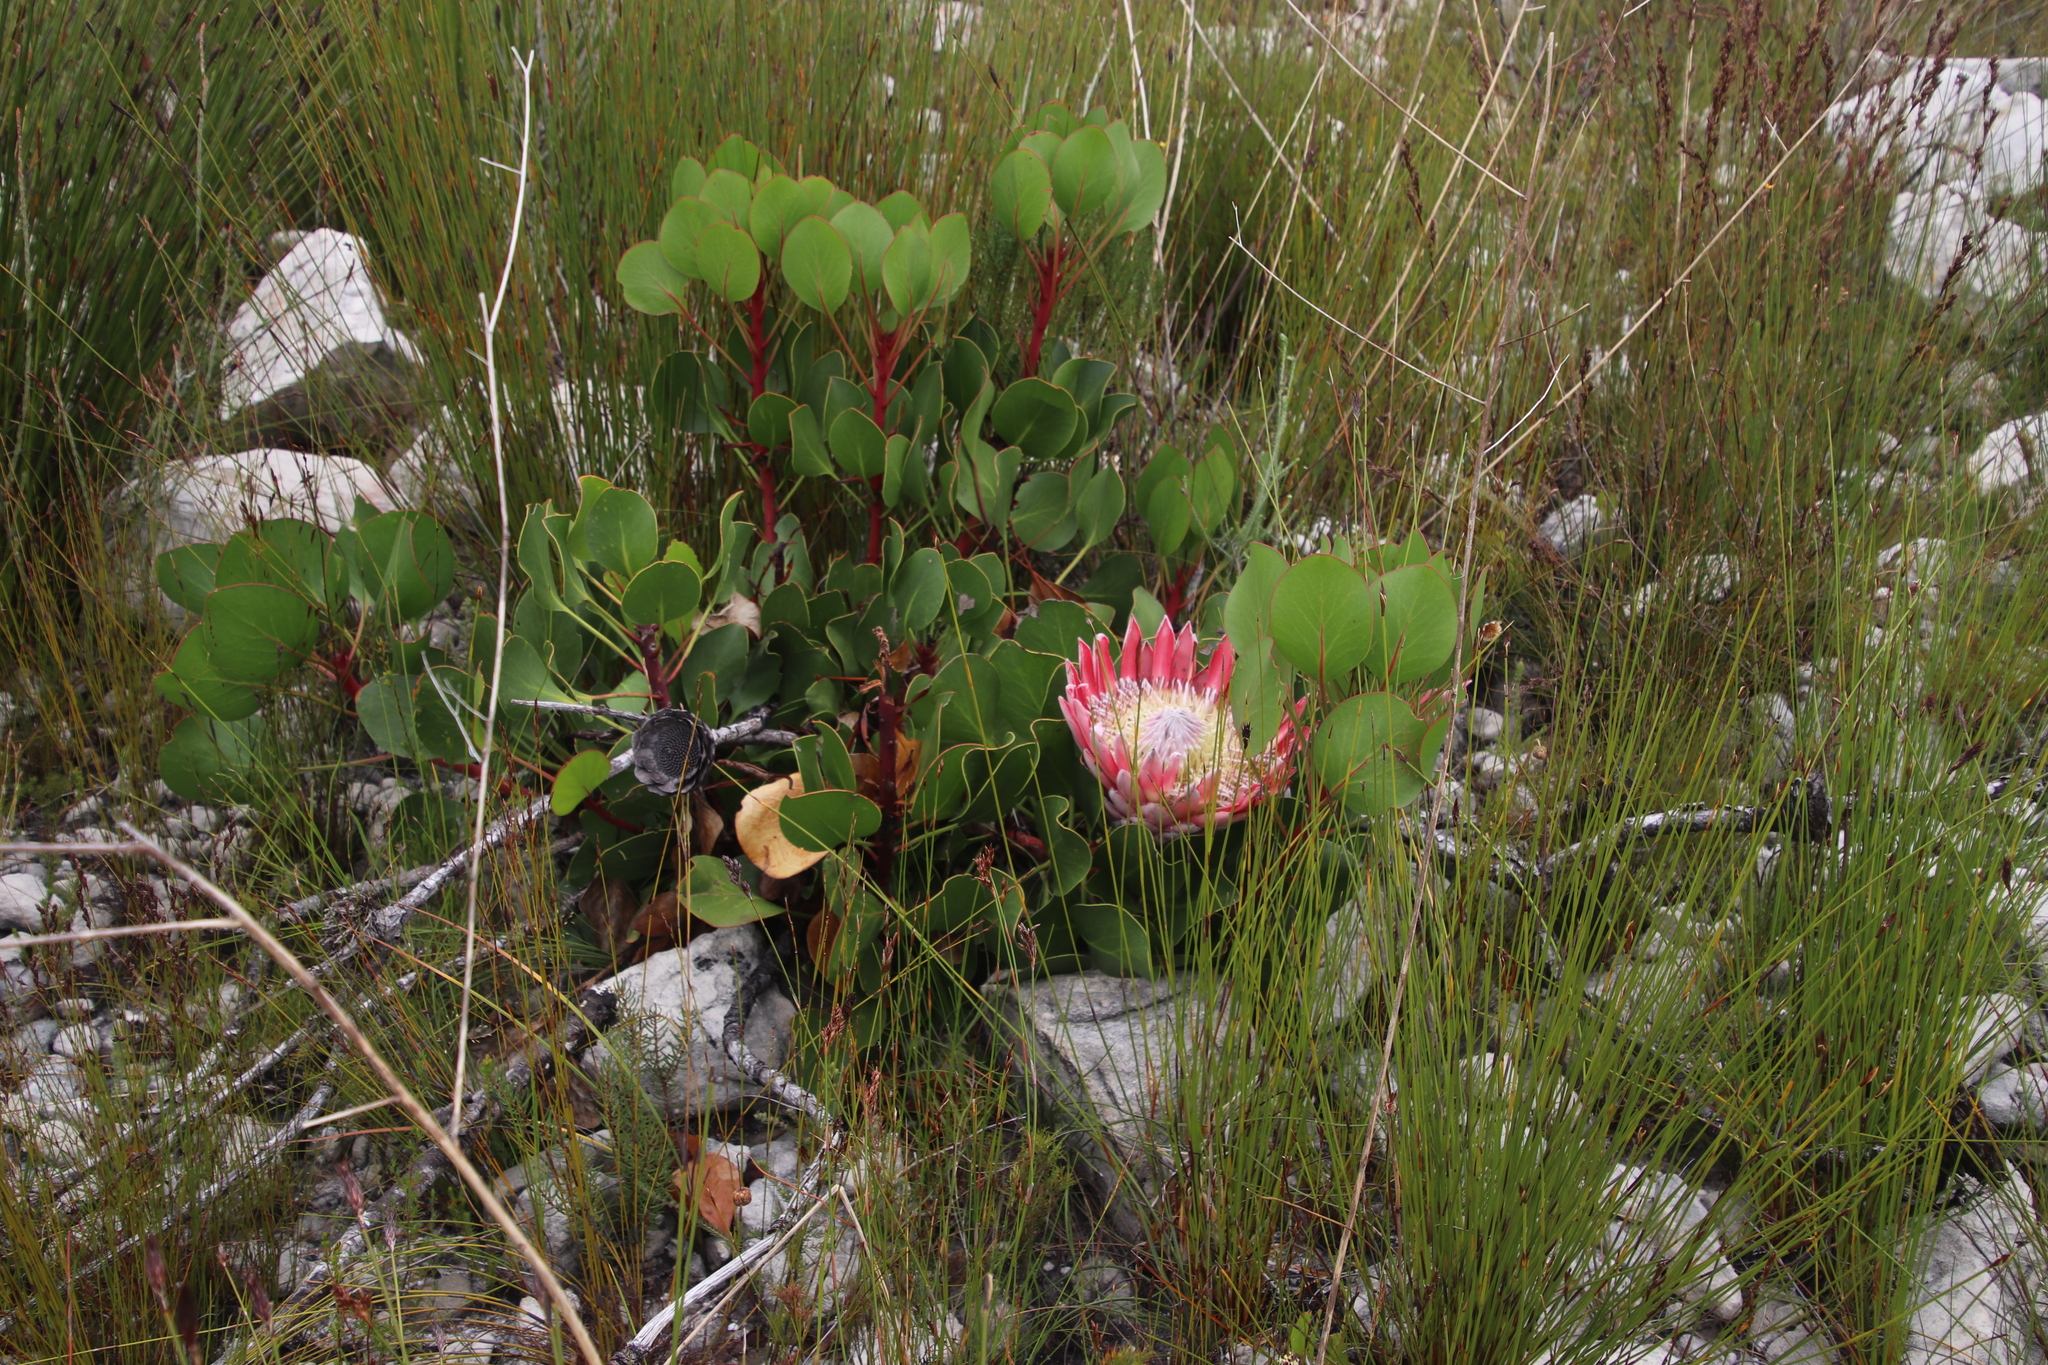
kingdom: Plantae
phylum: Tracheophyta
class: Magnoliopsida
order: Proteales
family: Proteaceae
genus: Protea
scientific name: Protea cynaroides
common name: King protea
